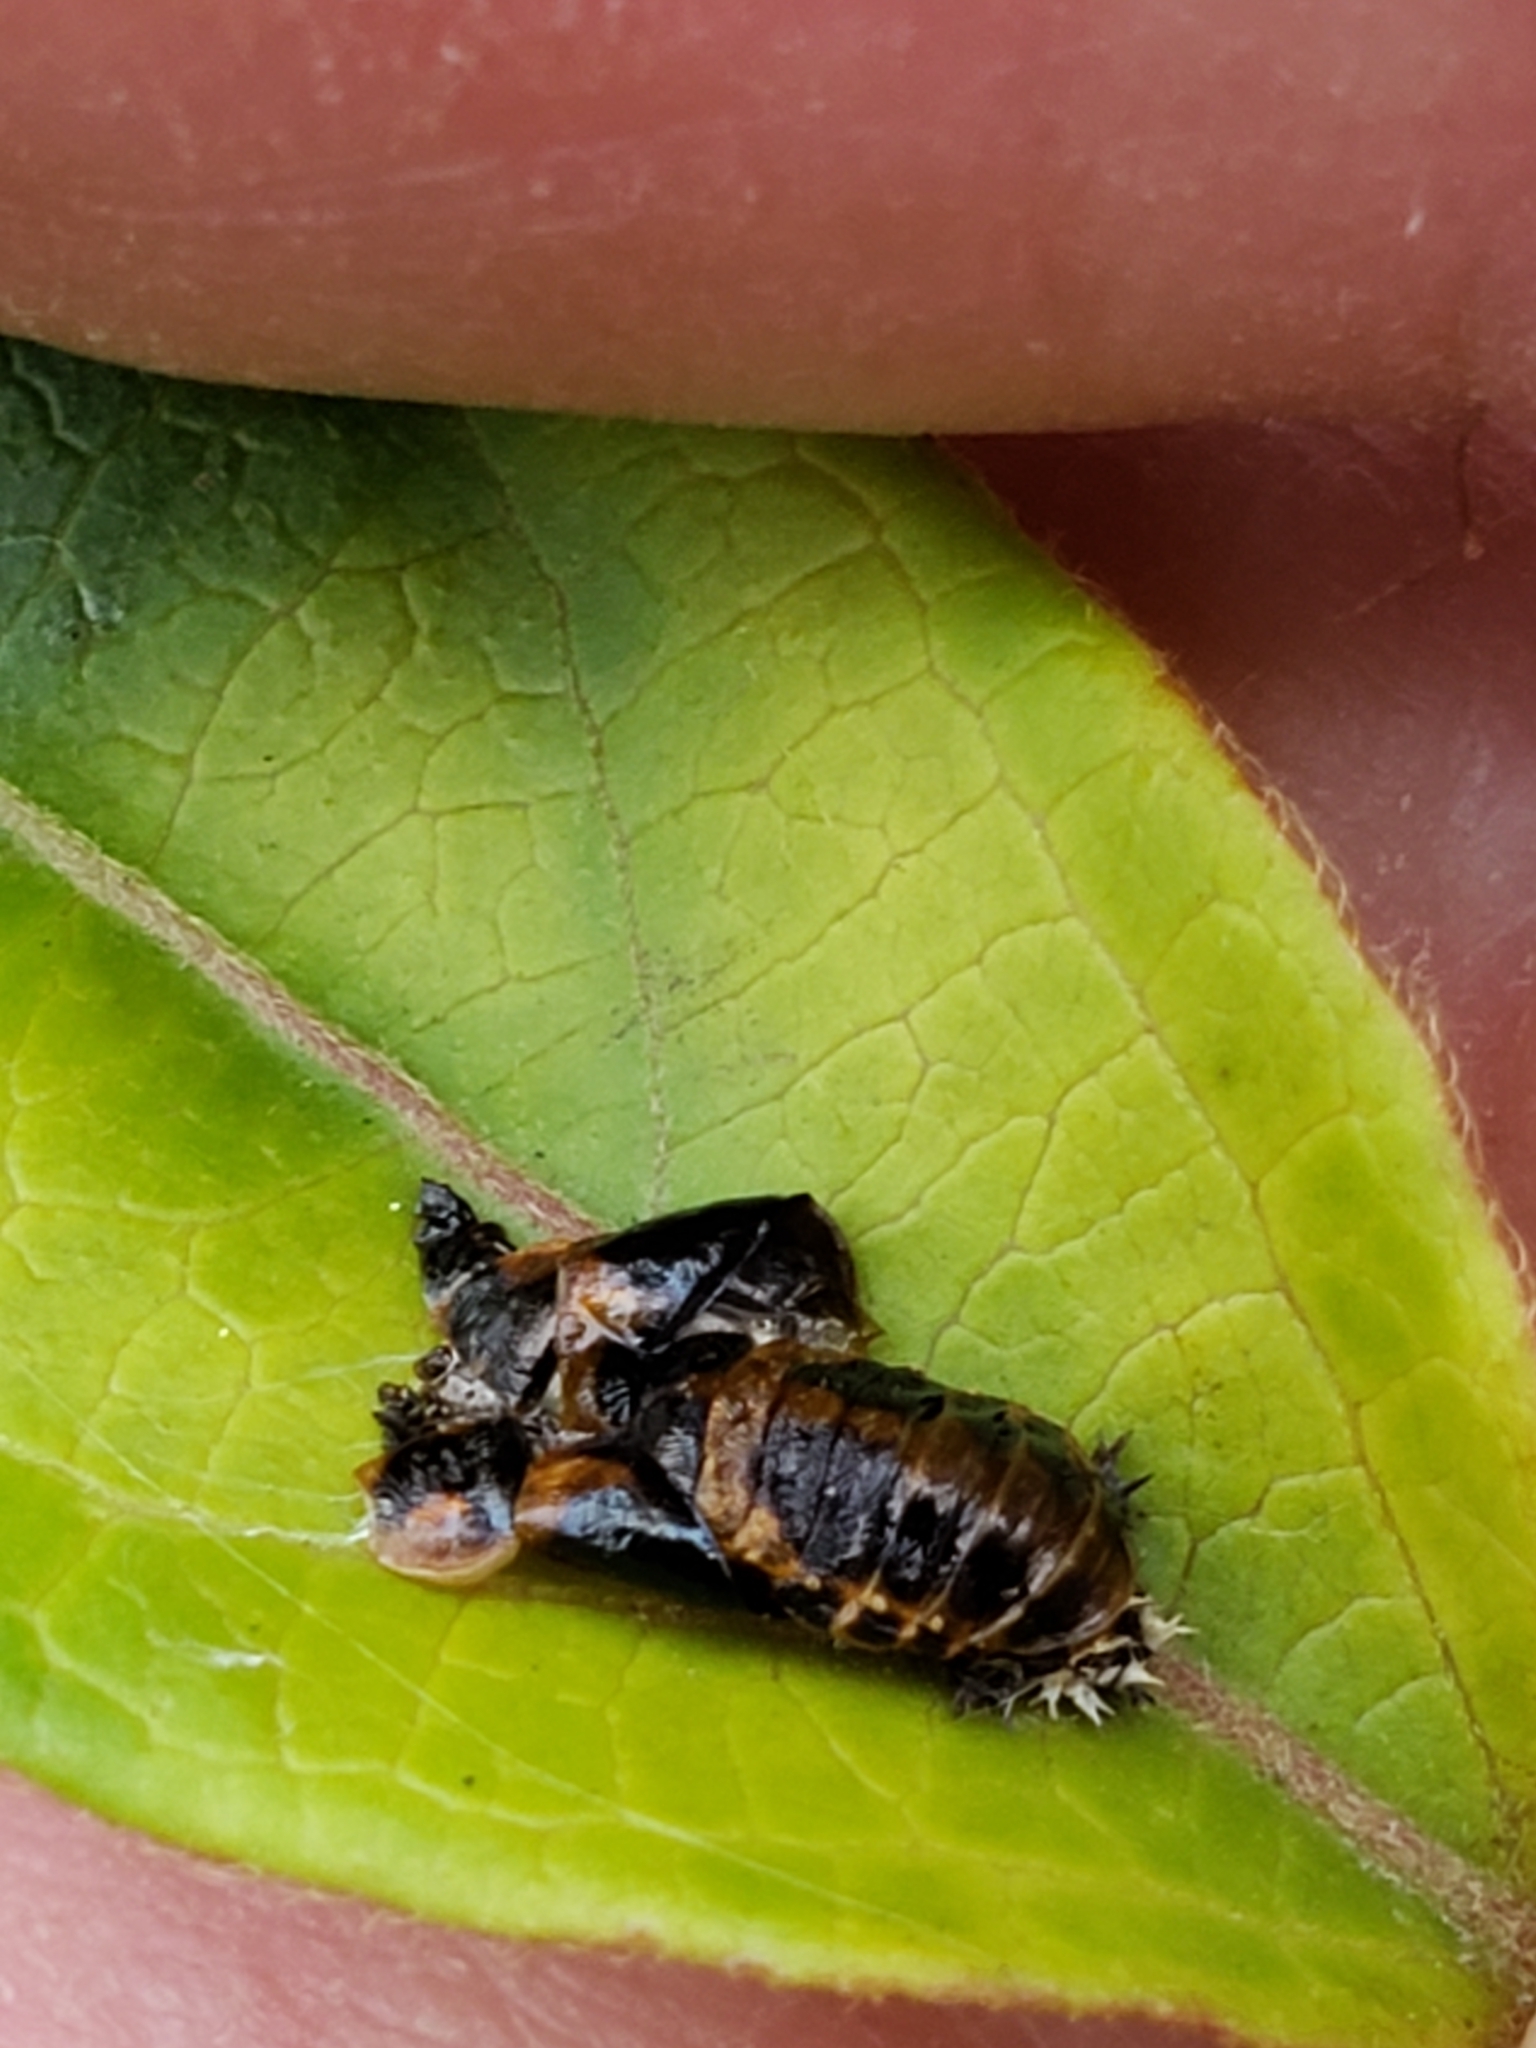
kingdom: Animalia
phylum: Arthropoda
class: Insecta
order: Coleoptera
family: Coccinellidae
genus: Harmonia
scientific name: Harmonia axyridis
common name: Harlequin ladybird
